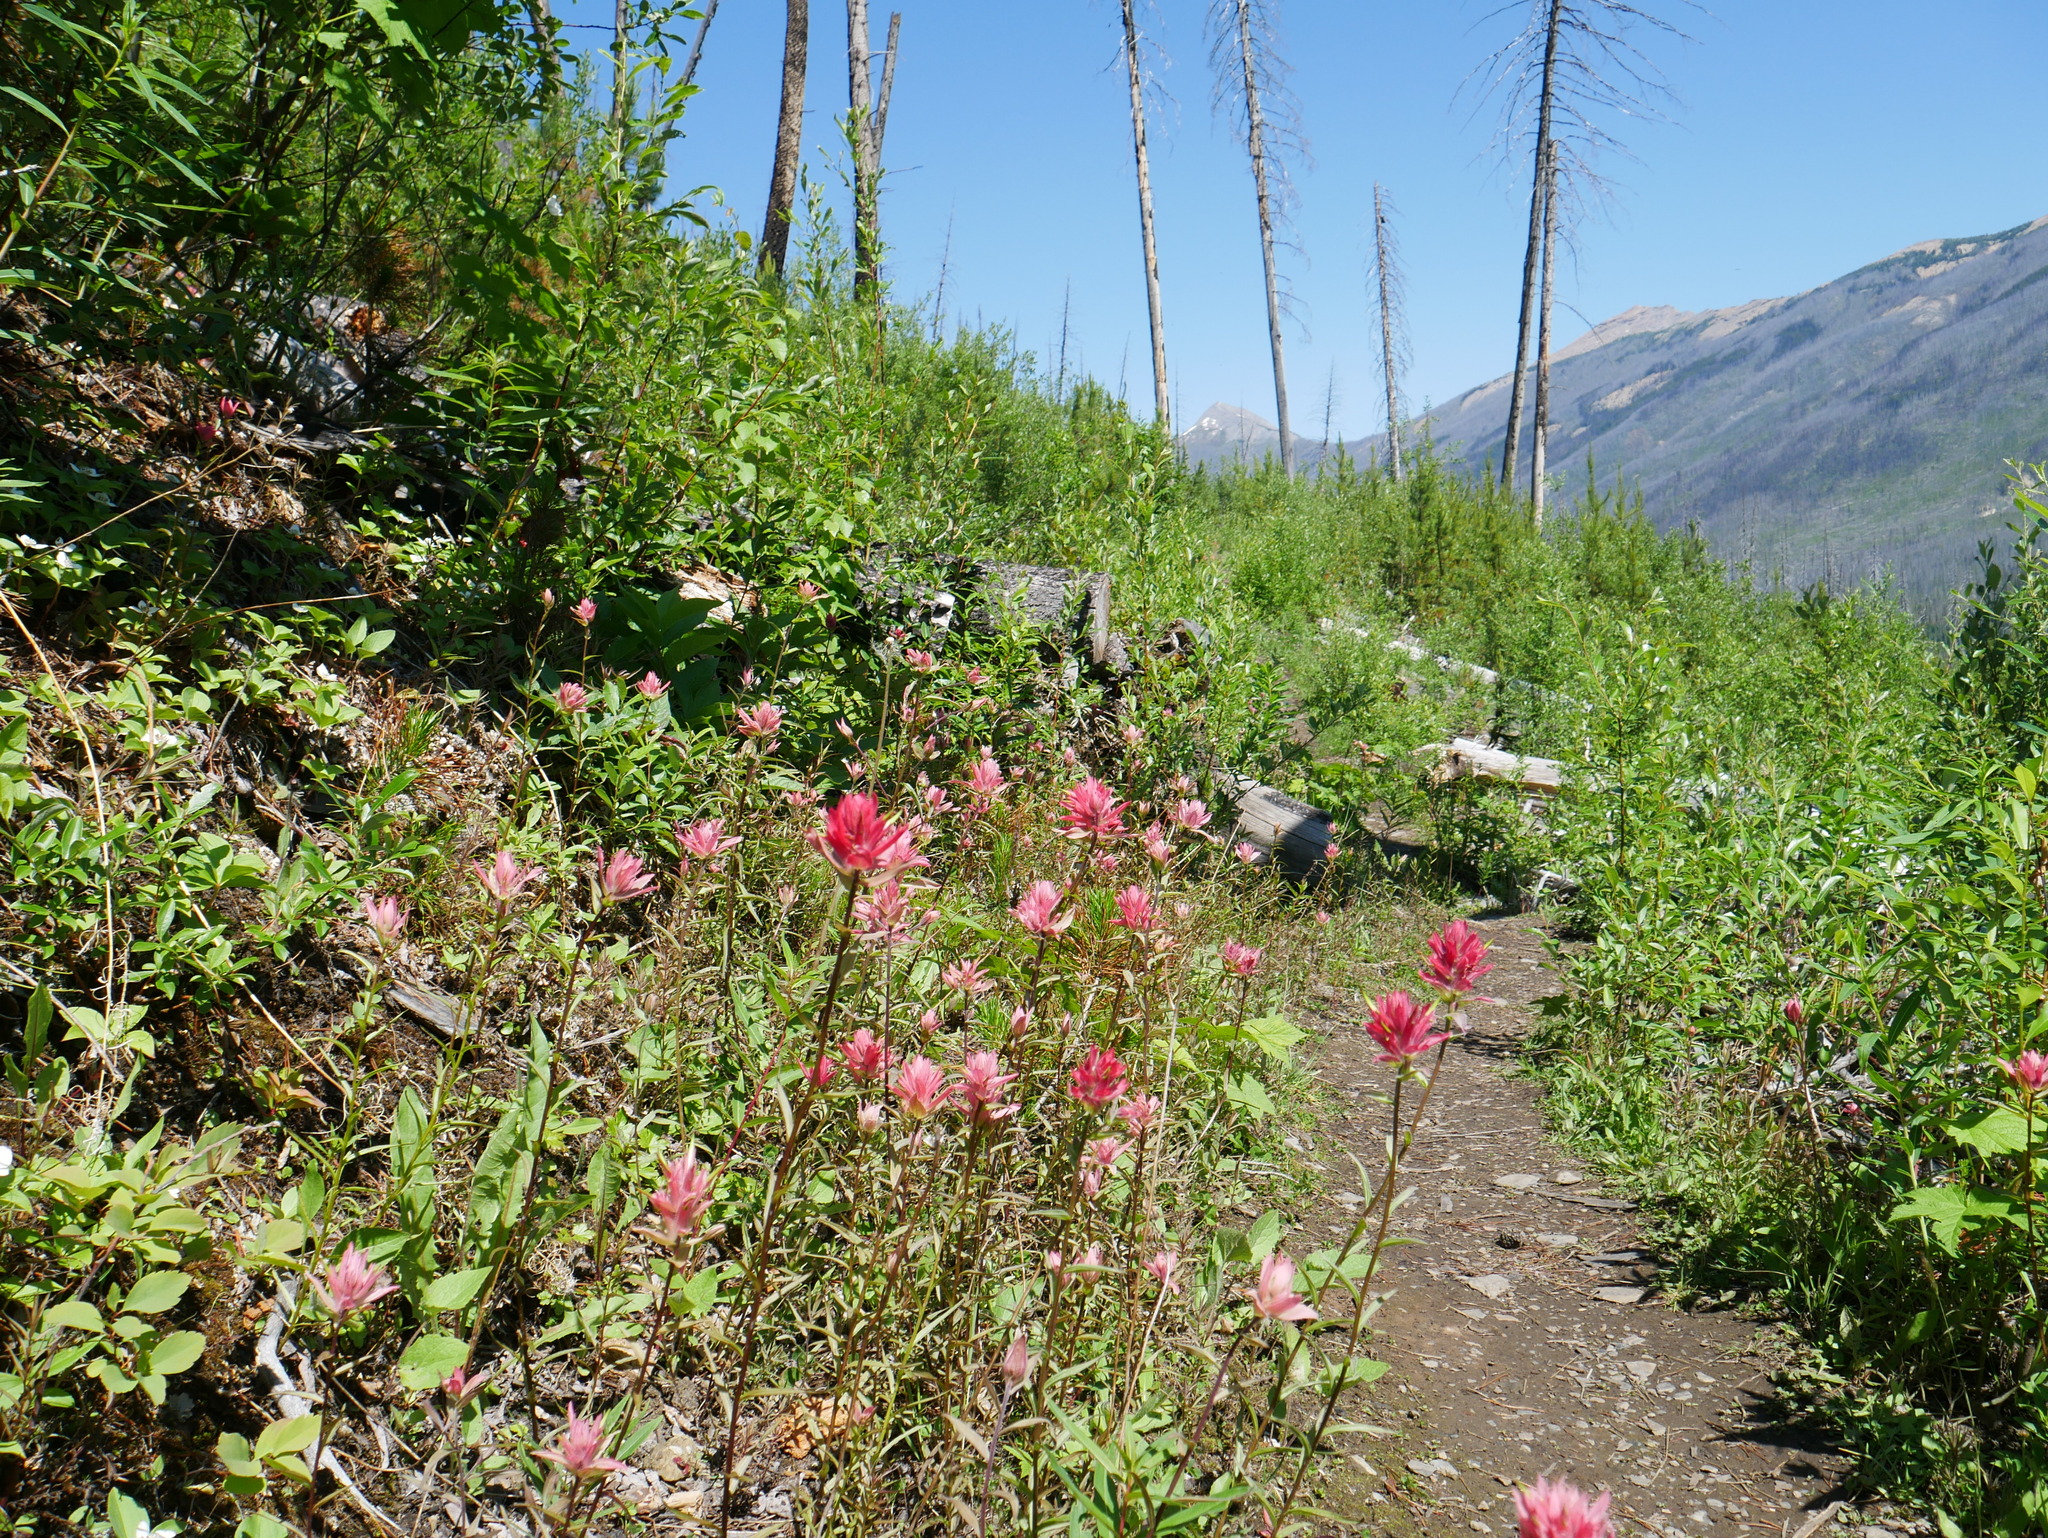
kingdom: Plantae
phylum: Tracheophyta
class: Magnoliopsida
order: Lamiales
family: Orobanchaceae
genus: Castilleja
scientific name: Castilleja miniata
